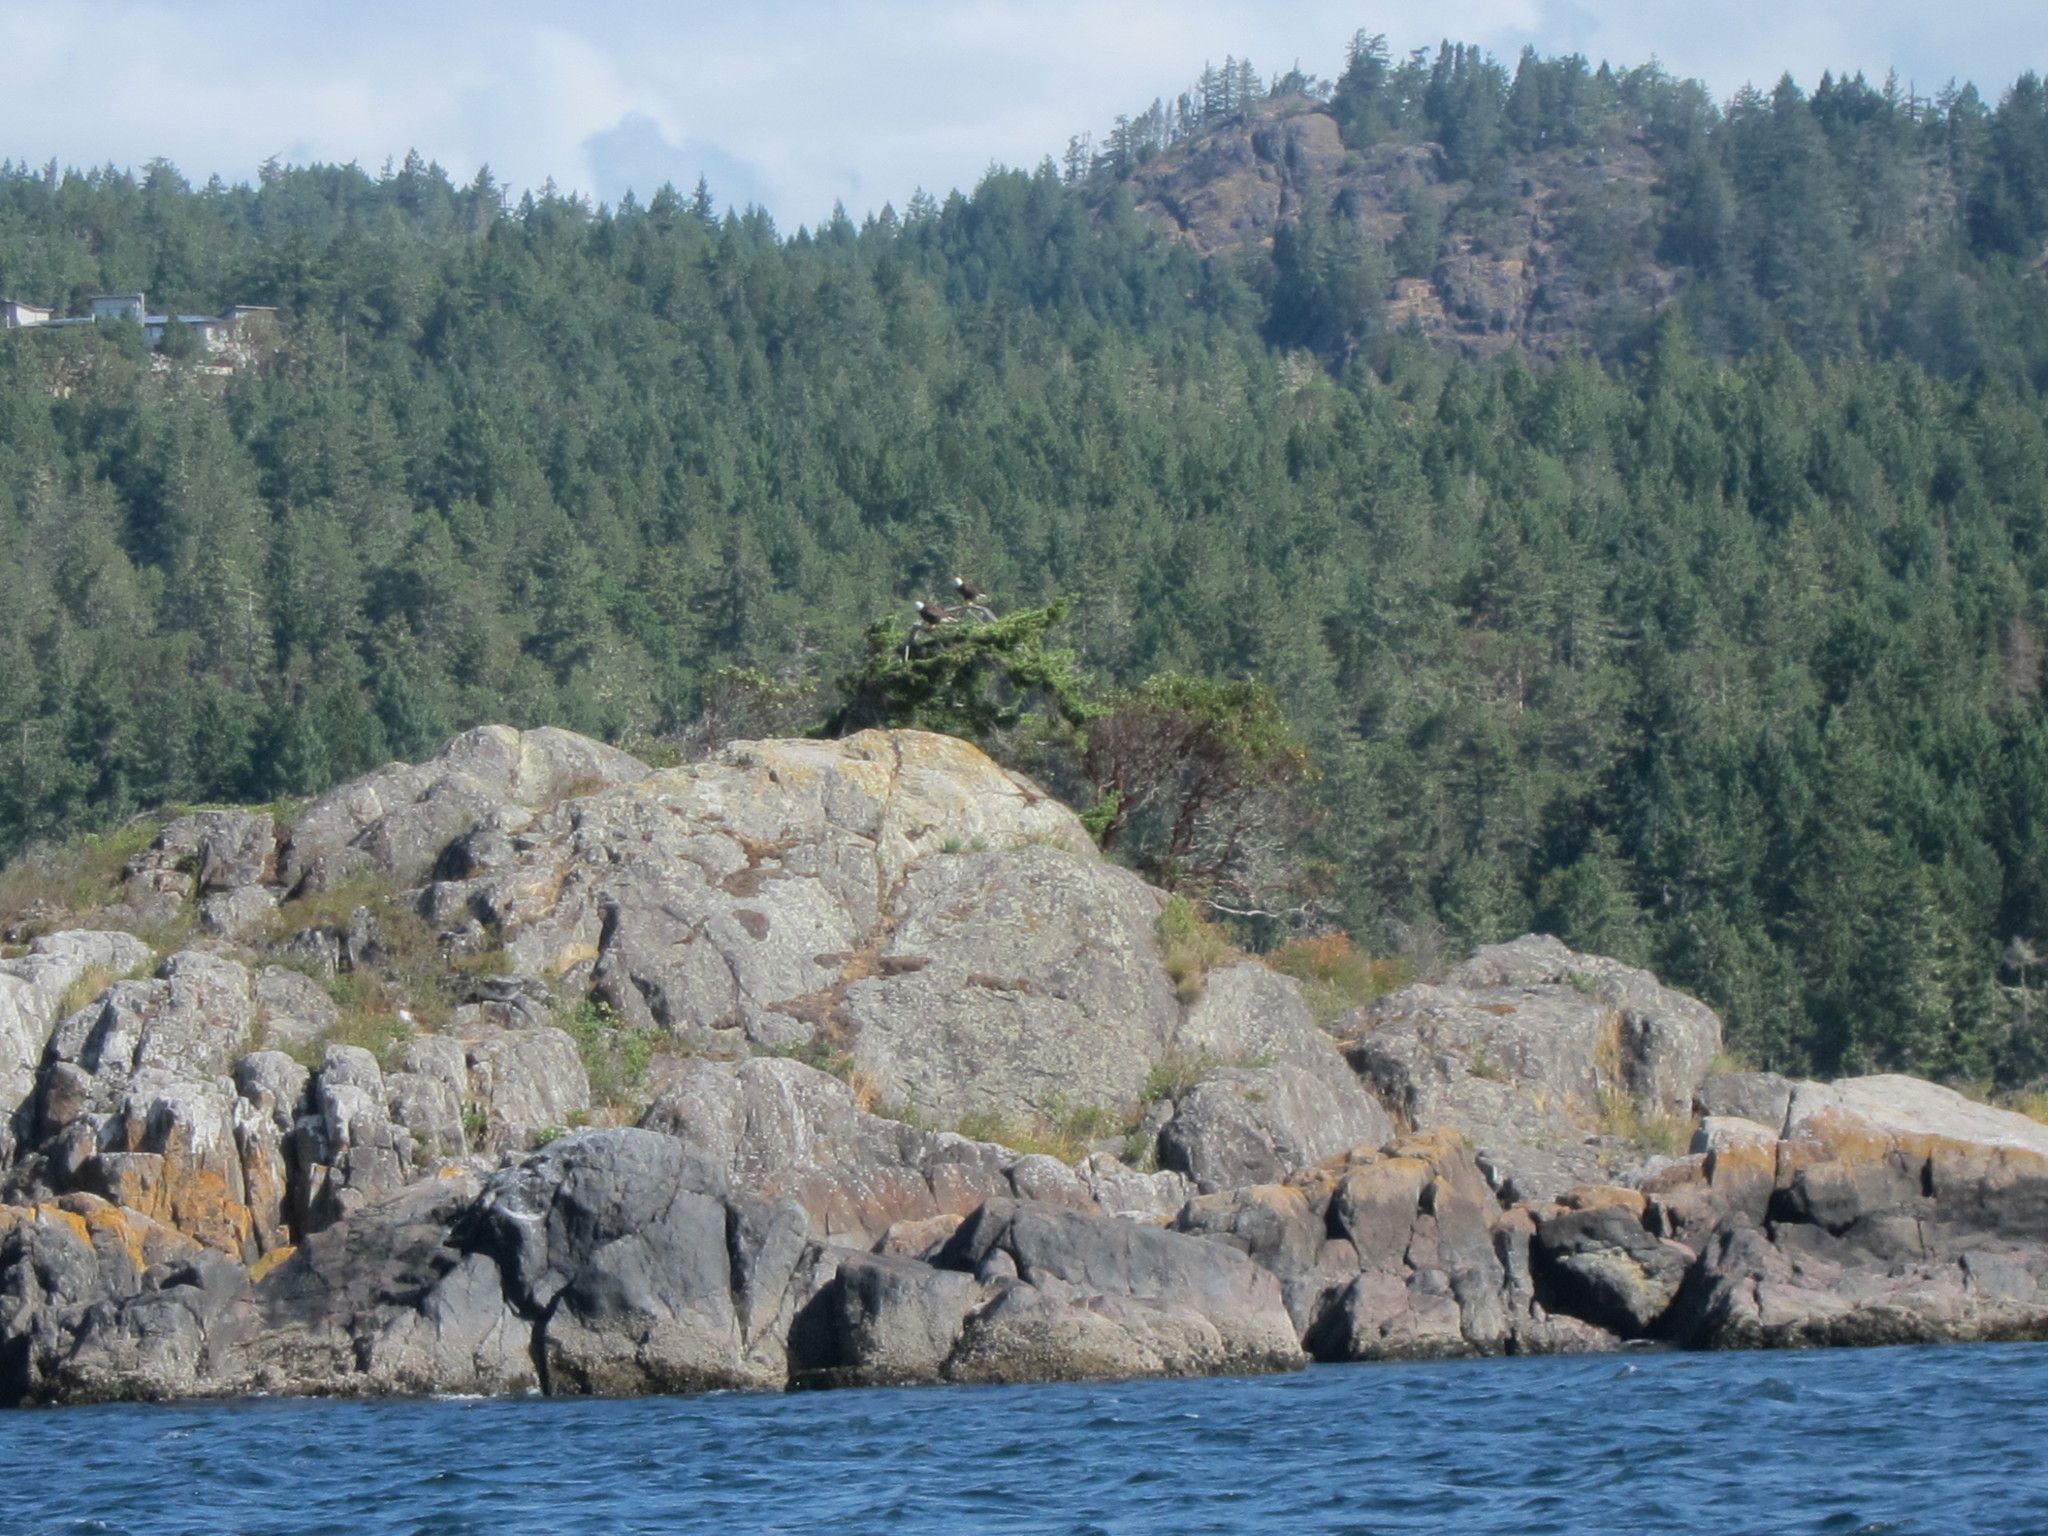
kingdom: Animalia
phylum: Chordata
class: Aves
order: Accipitriformes
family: Accipitridae
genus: Haliaeetus
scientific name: Haliaeetus leucocephalus
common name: Bald eagle
